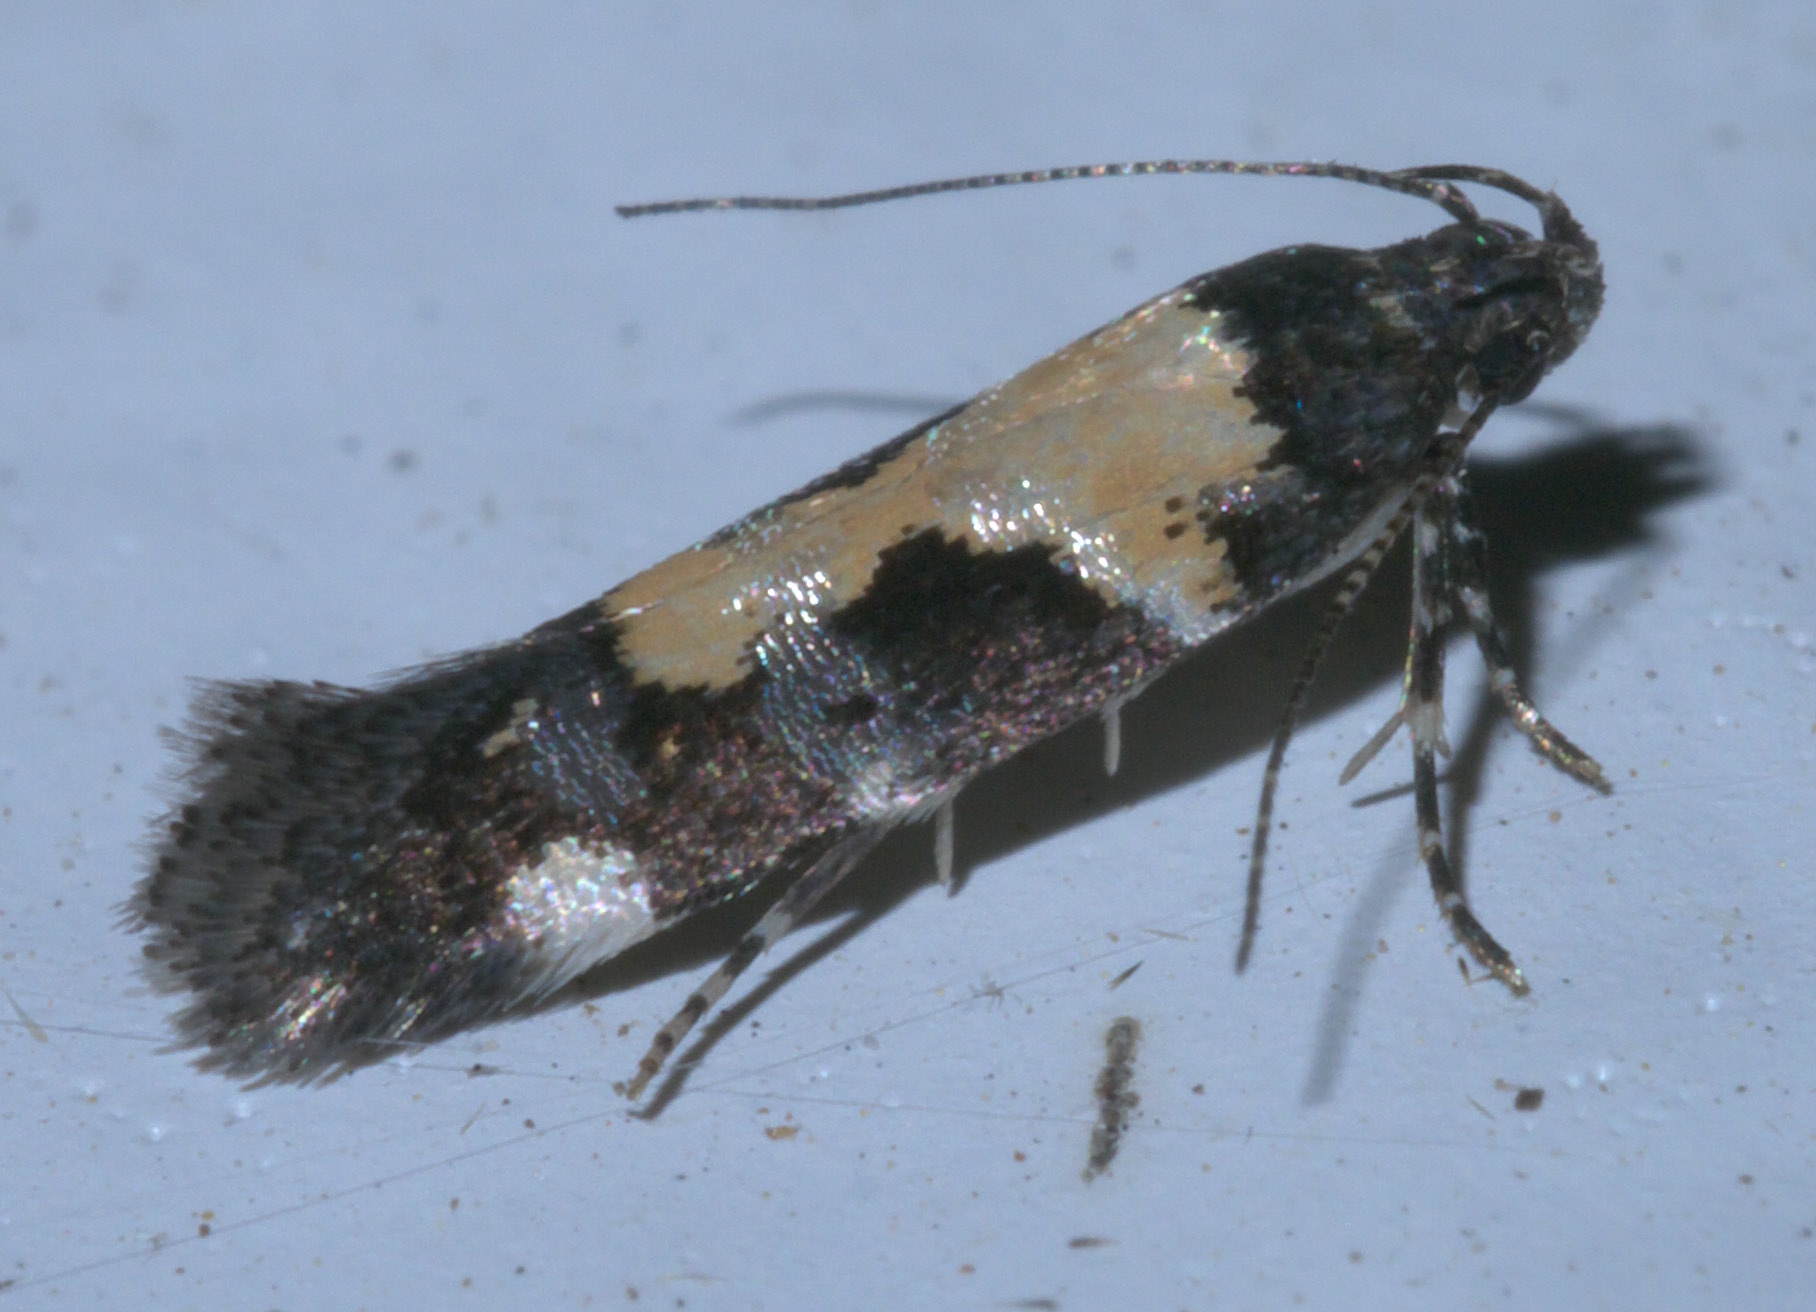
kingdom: Animalia
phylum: Arthropoda
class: Insecta
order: Lepidoptera
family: Gelechiidae
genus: Stegasta
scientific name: Stegasta bosqueella
